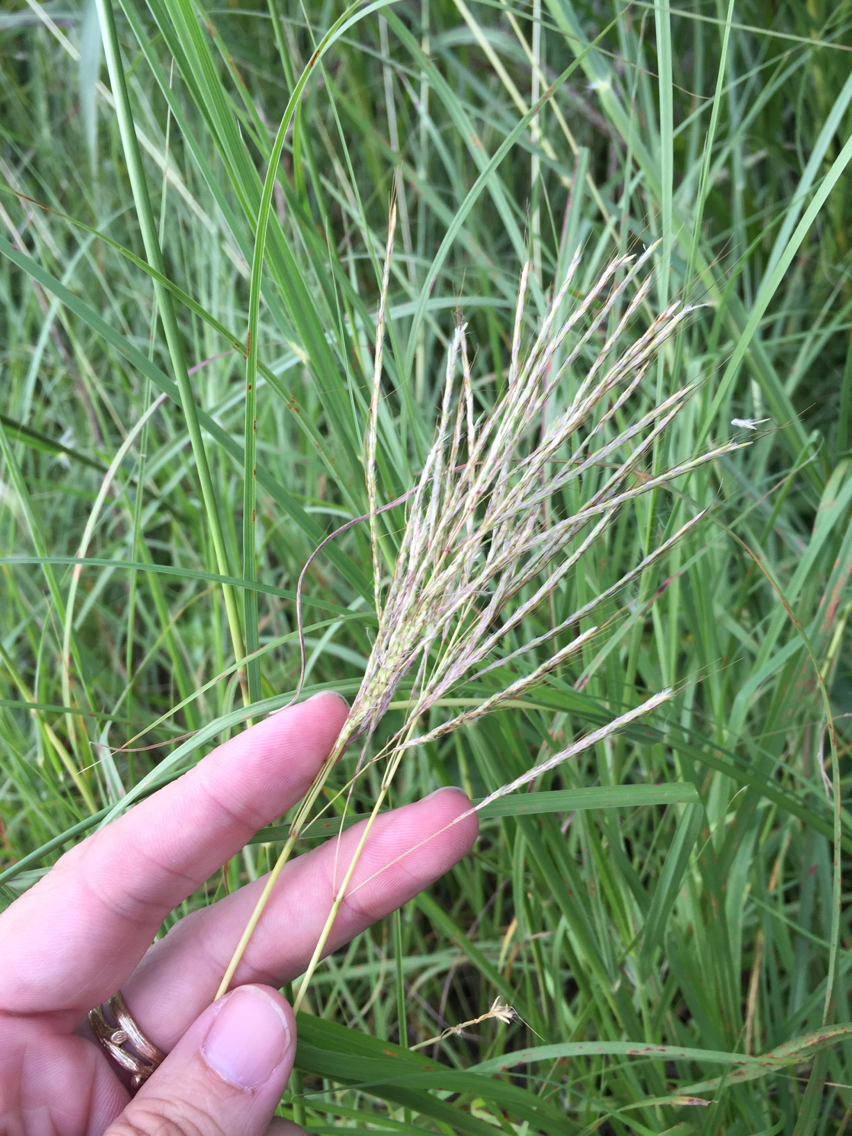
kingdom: Plantae
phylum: Tracheophyta
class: Liliopsida
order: Poales
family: Poaceae
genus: Bothriochloa
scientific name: Bothriochloa ischaemum
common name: Yellow bluestem
